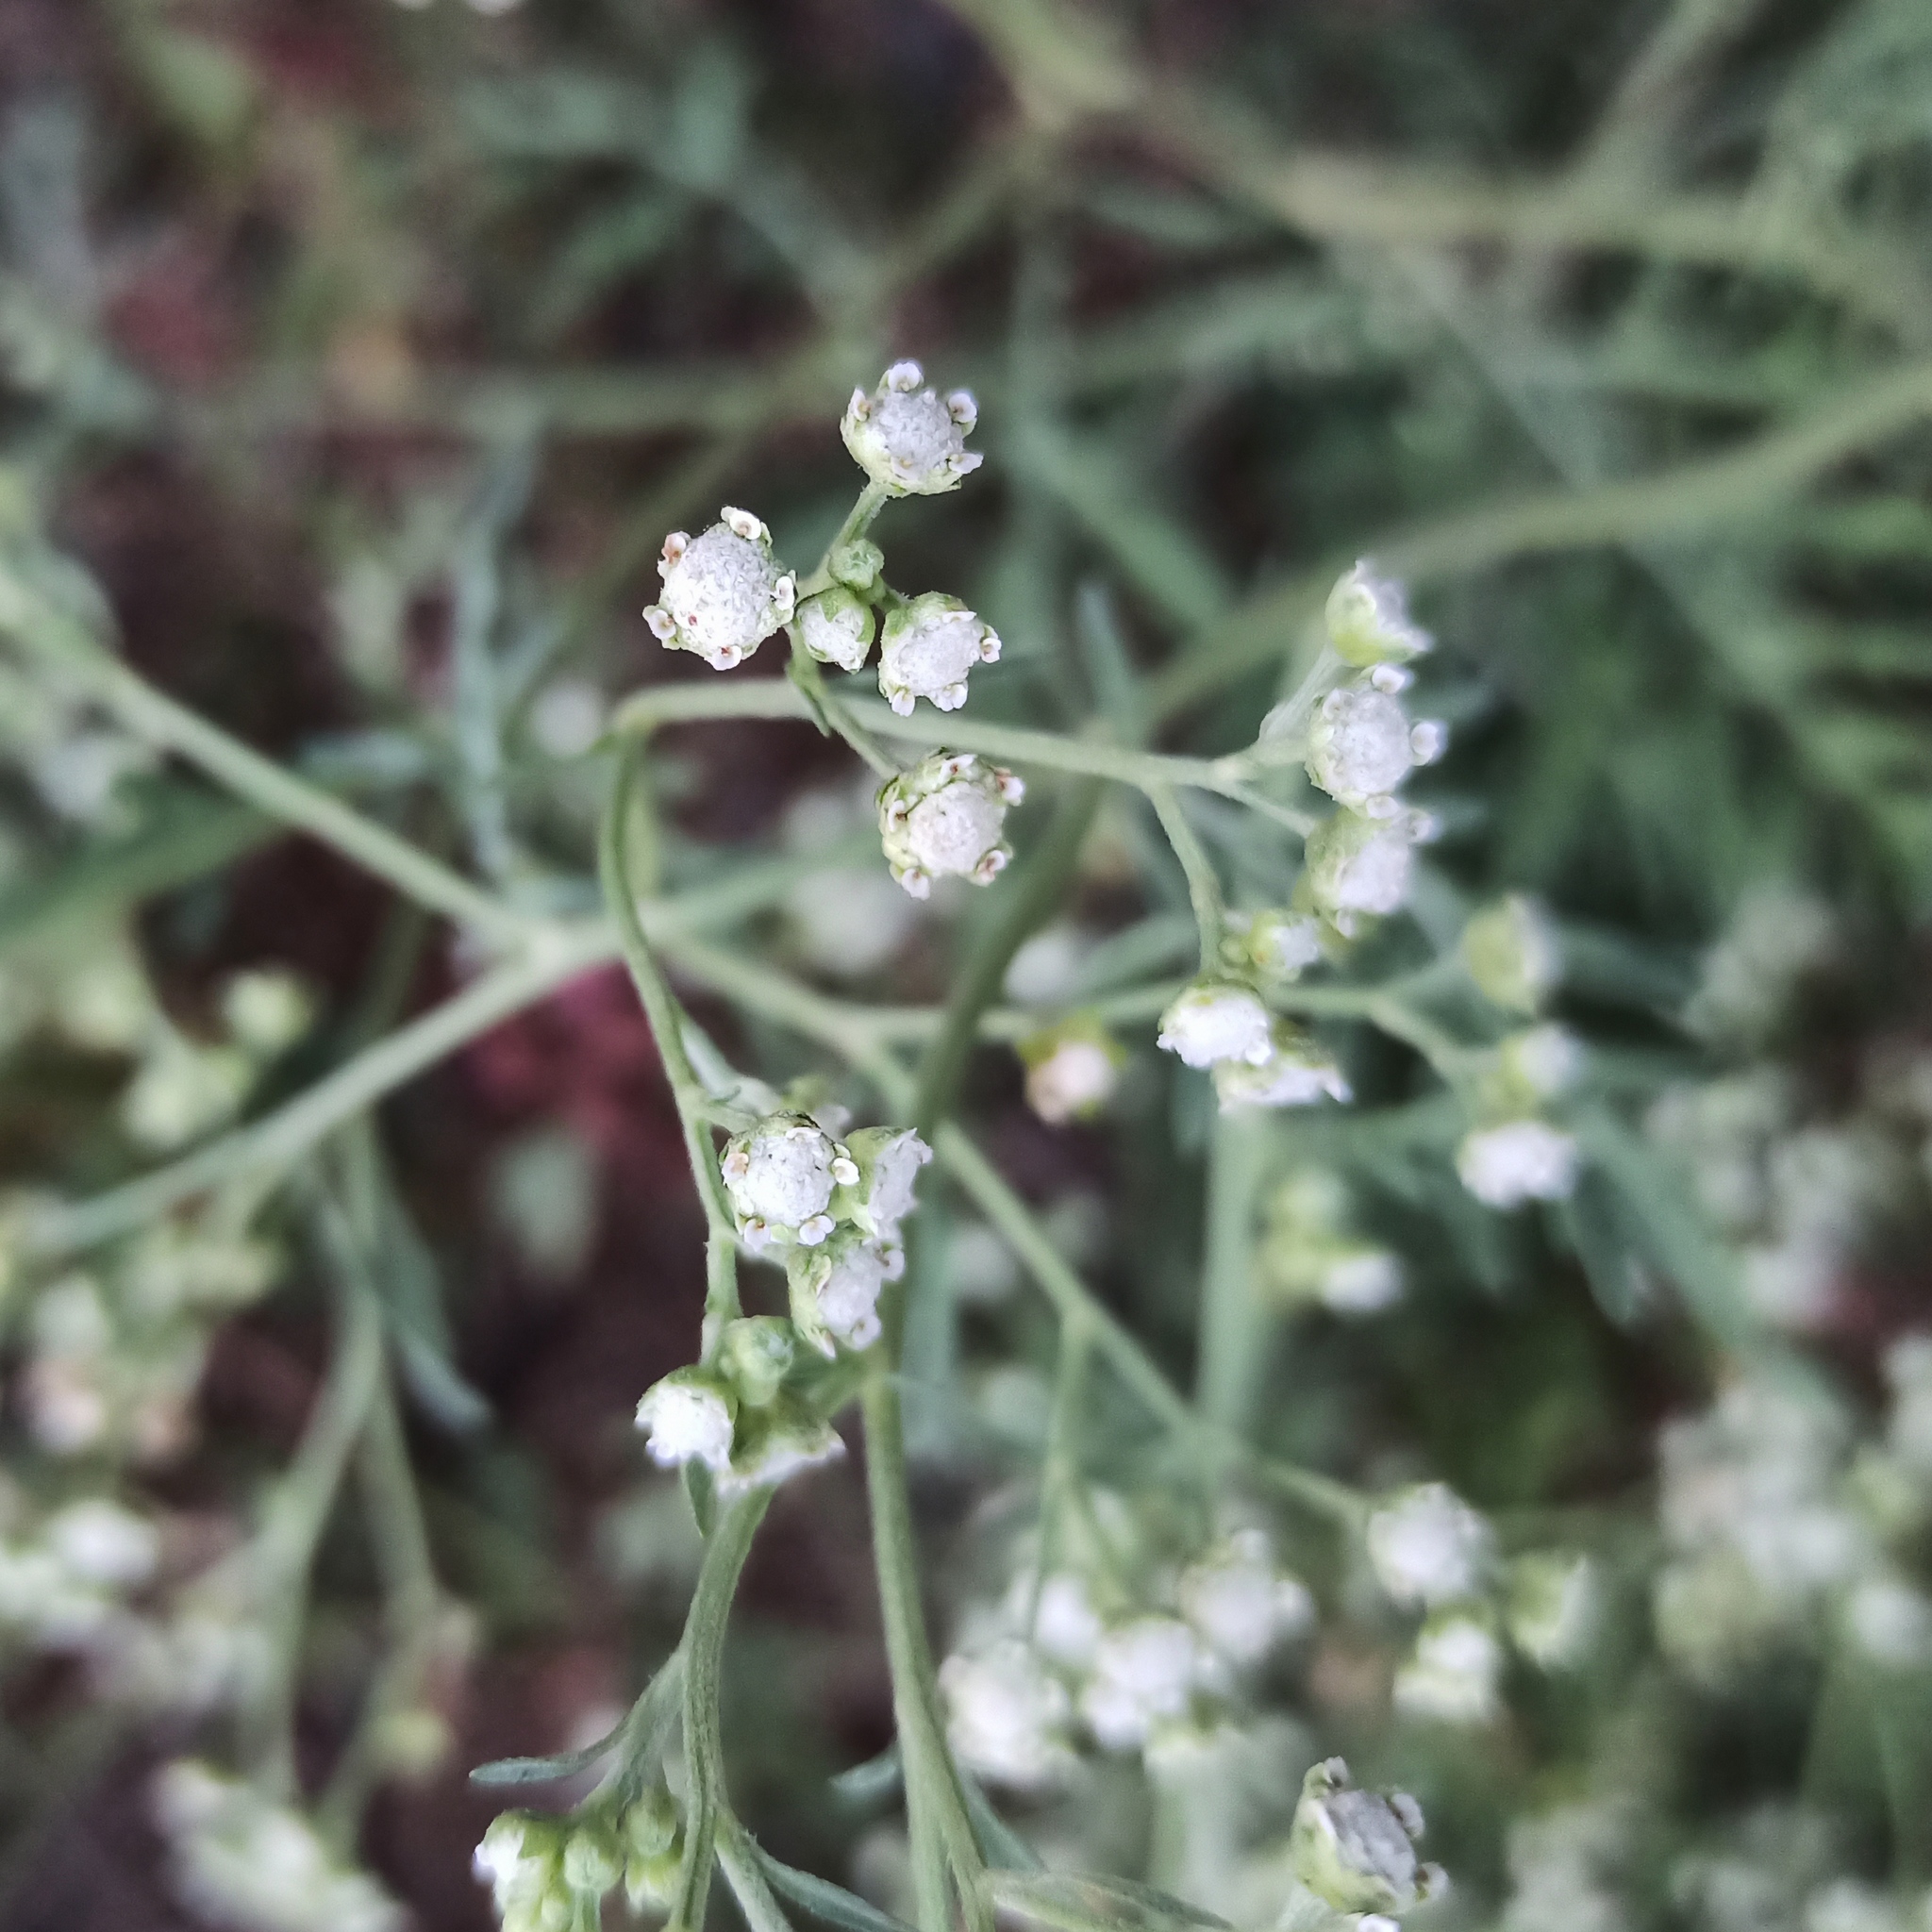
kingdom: Plantae
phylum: Tracheophyta
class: Magnoliopsida
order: Asterales
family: Asteraceae
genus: Parthenium
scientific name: Parthenium hysterophorus
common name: Santa maria feverfew
